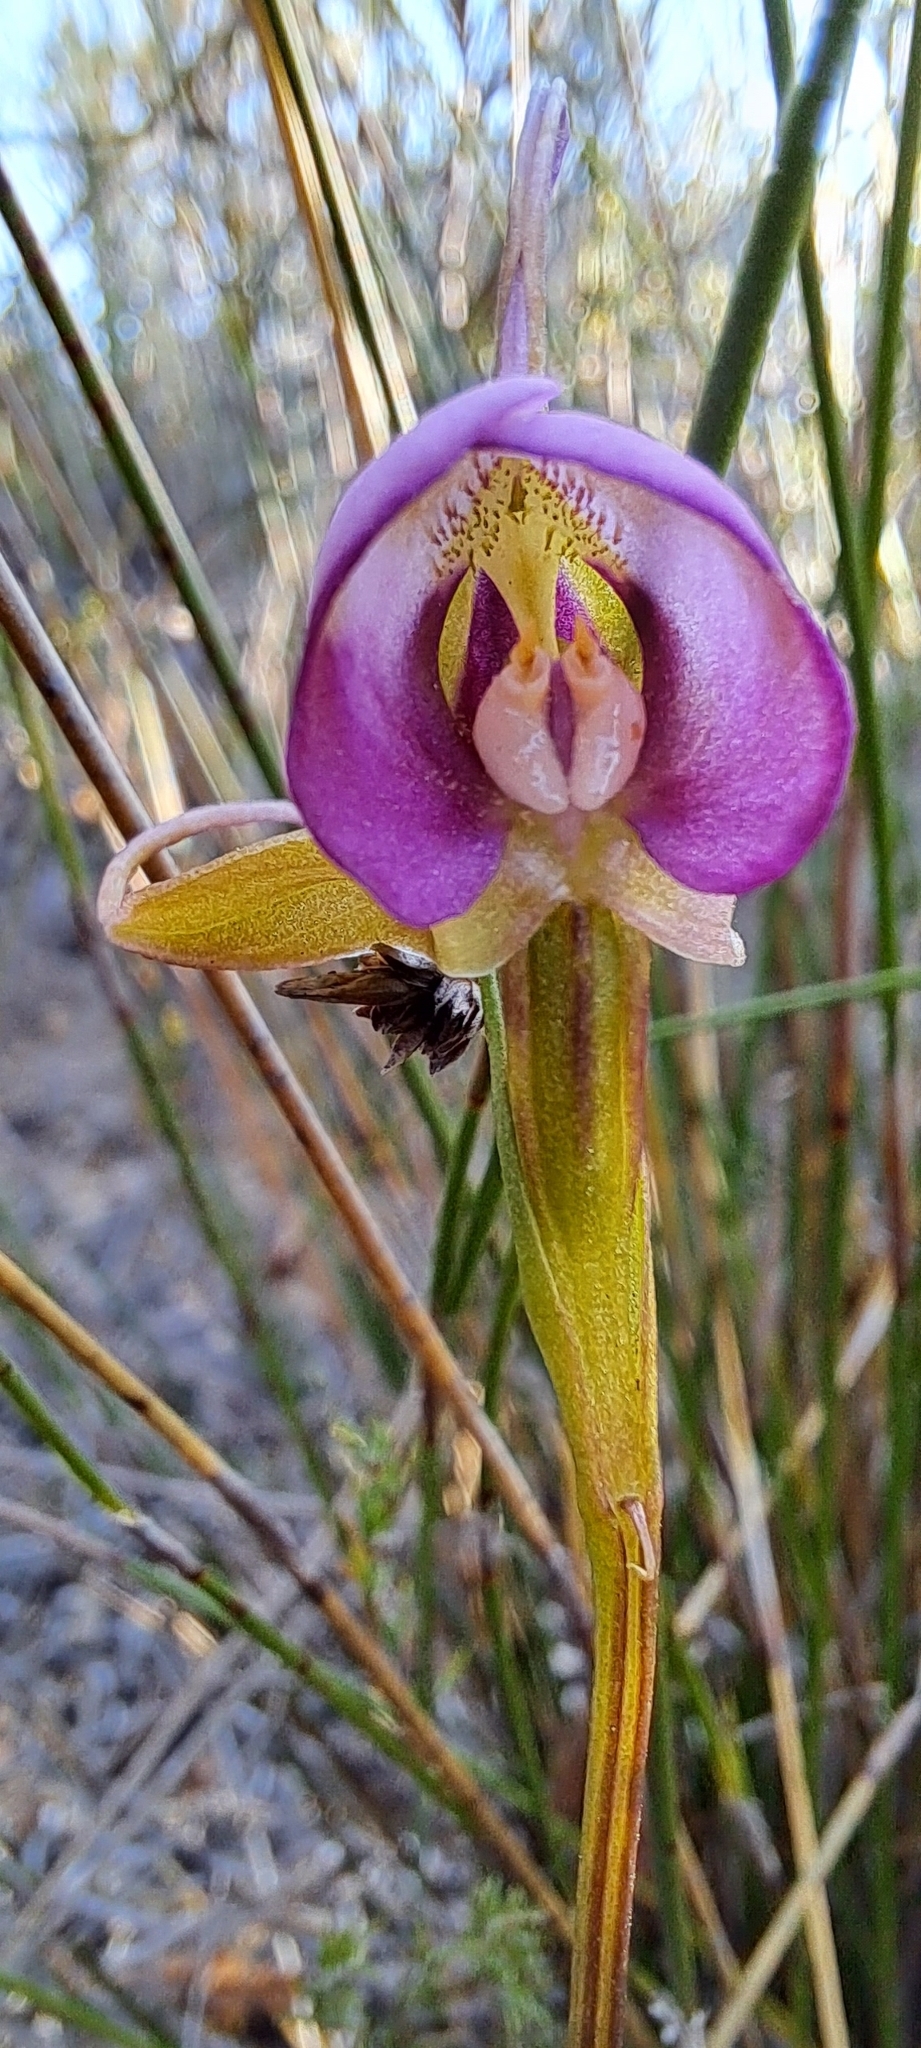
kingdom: Plantae
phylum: Tracheophyta
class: Liliopsida
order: Asparagales
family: Orchidaceae
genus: Disperis
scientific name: Disperis capensis
